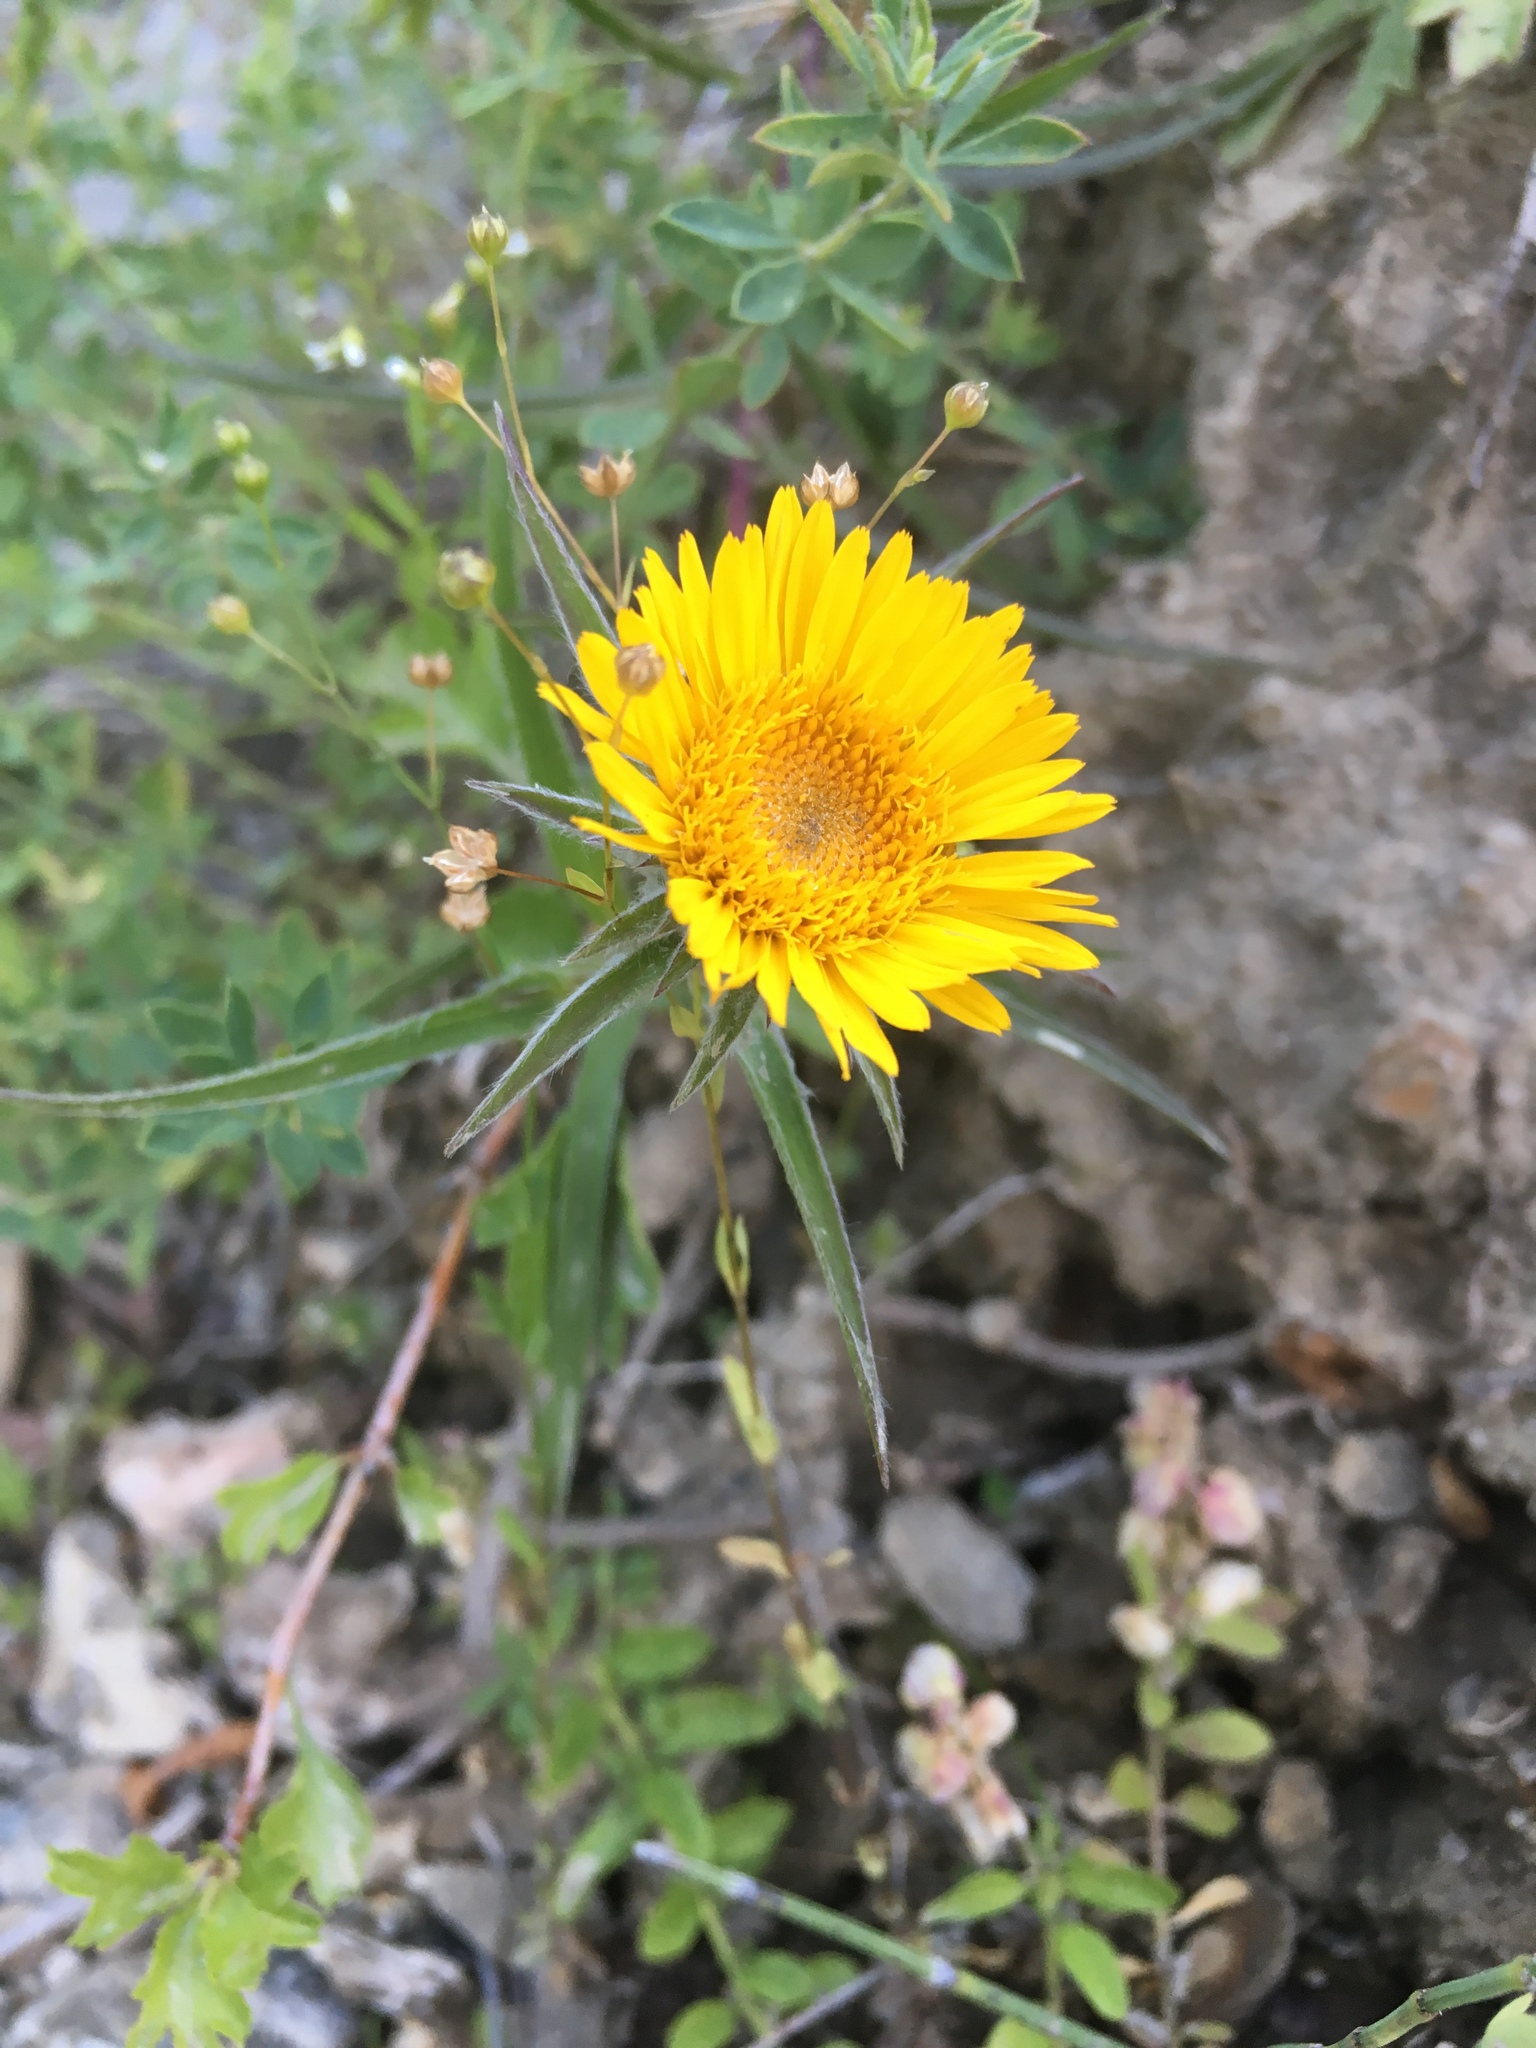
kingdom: Plantae
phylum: Tracheophyta
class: Magnoliopsida
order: Asterales
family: Asteraceae
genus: Pentanema
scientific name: Pentanema ensifolium
